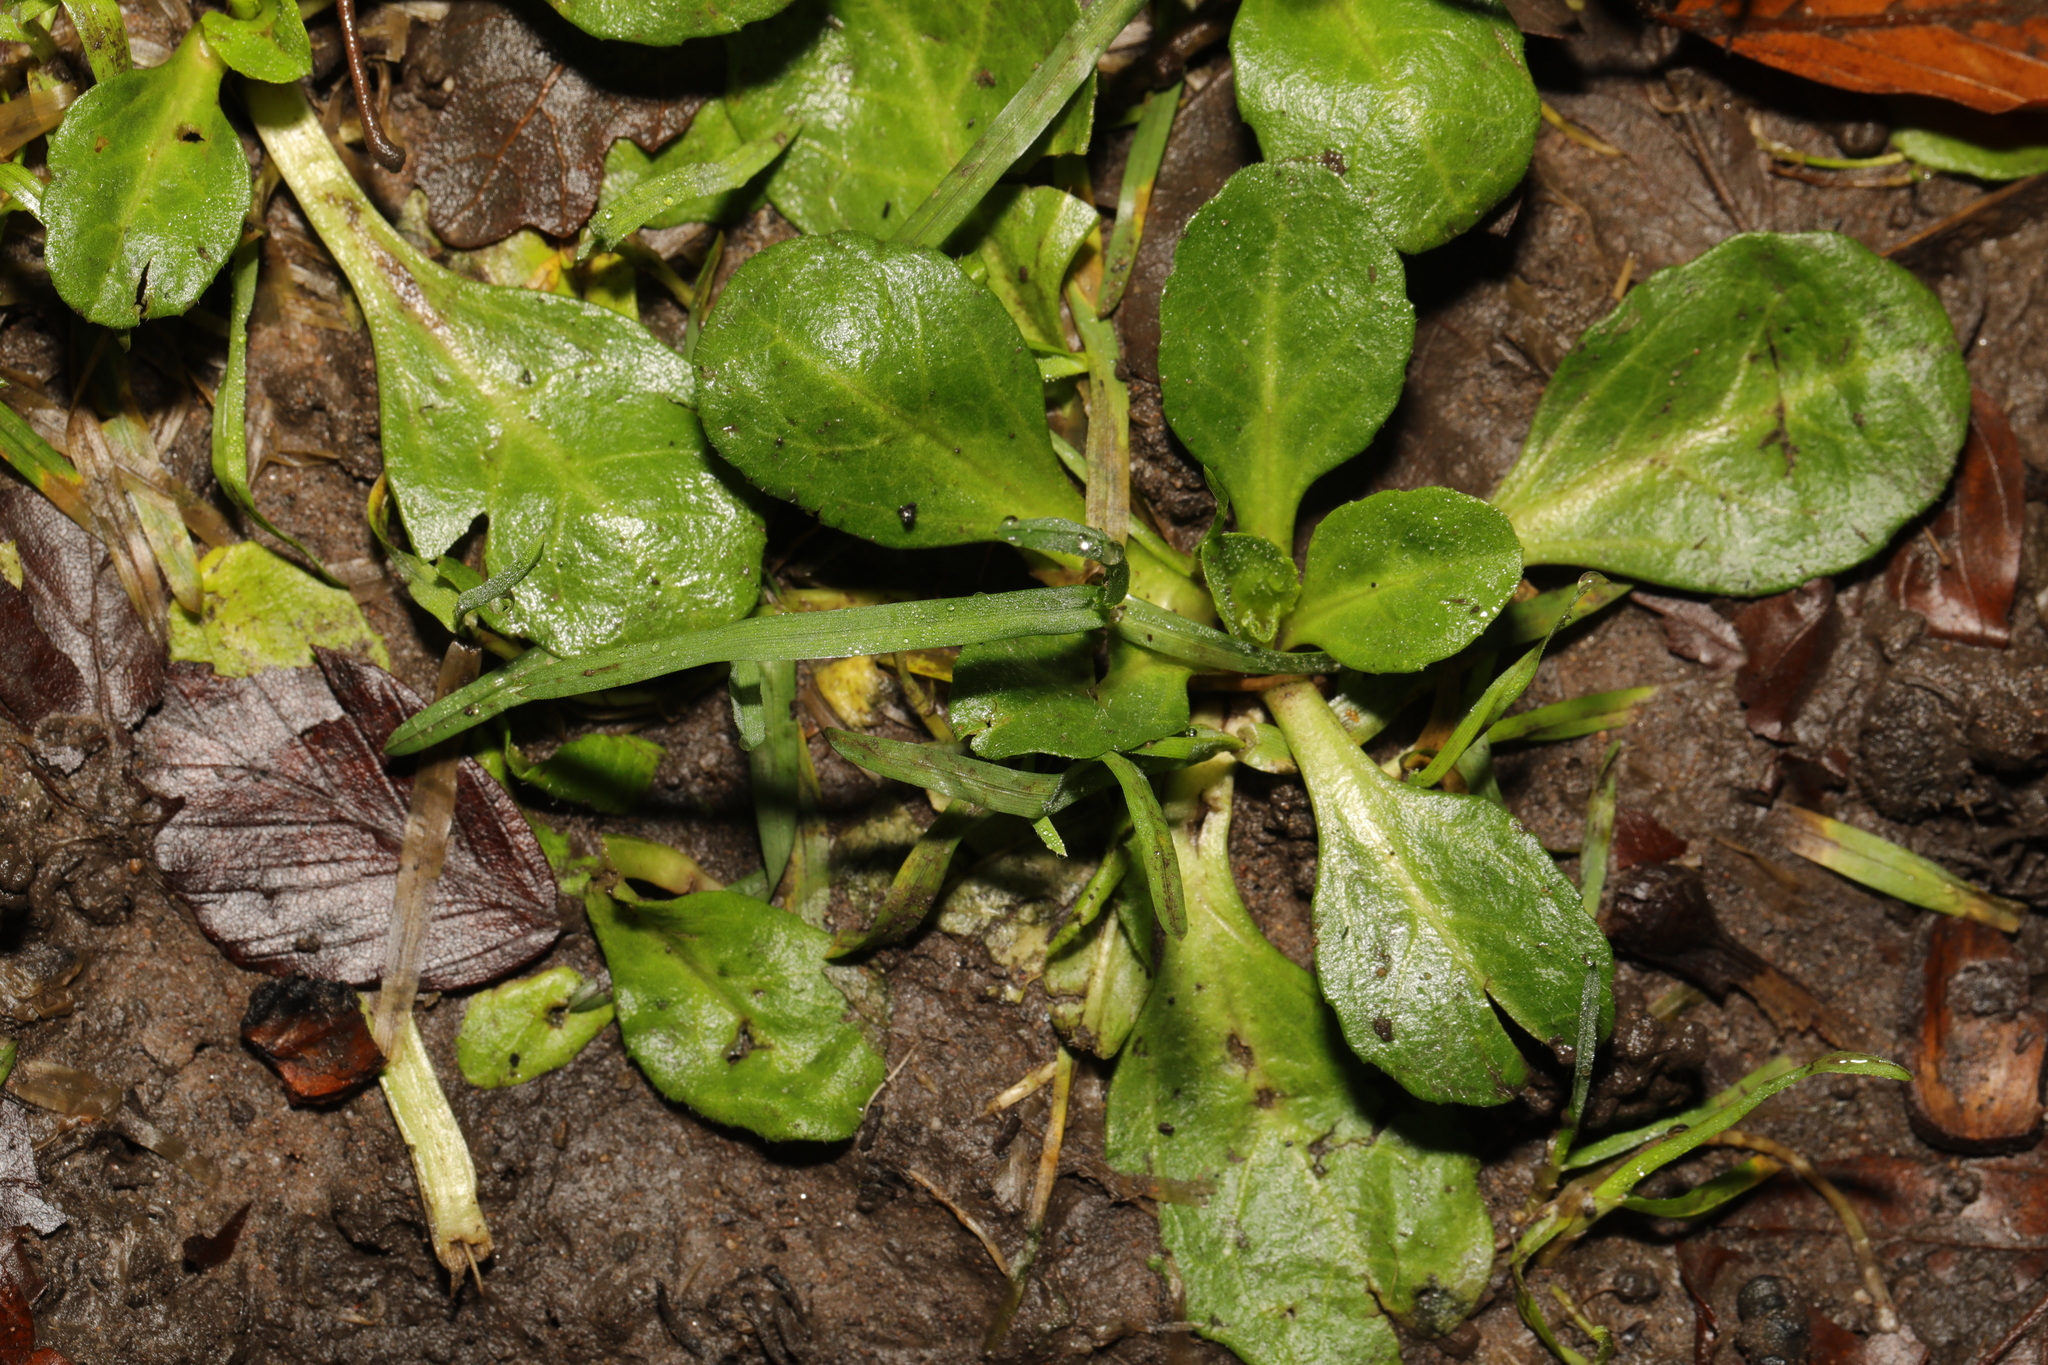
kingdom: Plantae
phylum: Tracheophyta
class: Magnoliopsida
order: Asterales
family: Asteraceae
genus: Bellis
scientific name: Bellis perennis
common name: Lawndaisy
